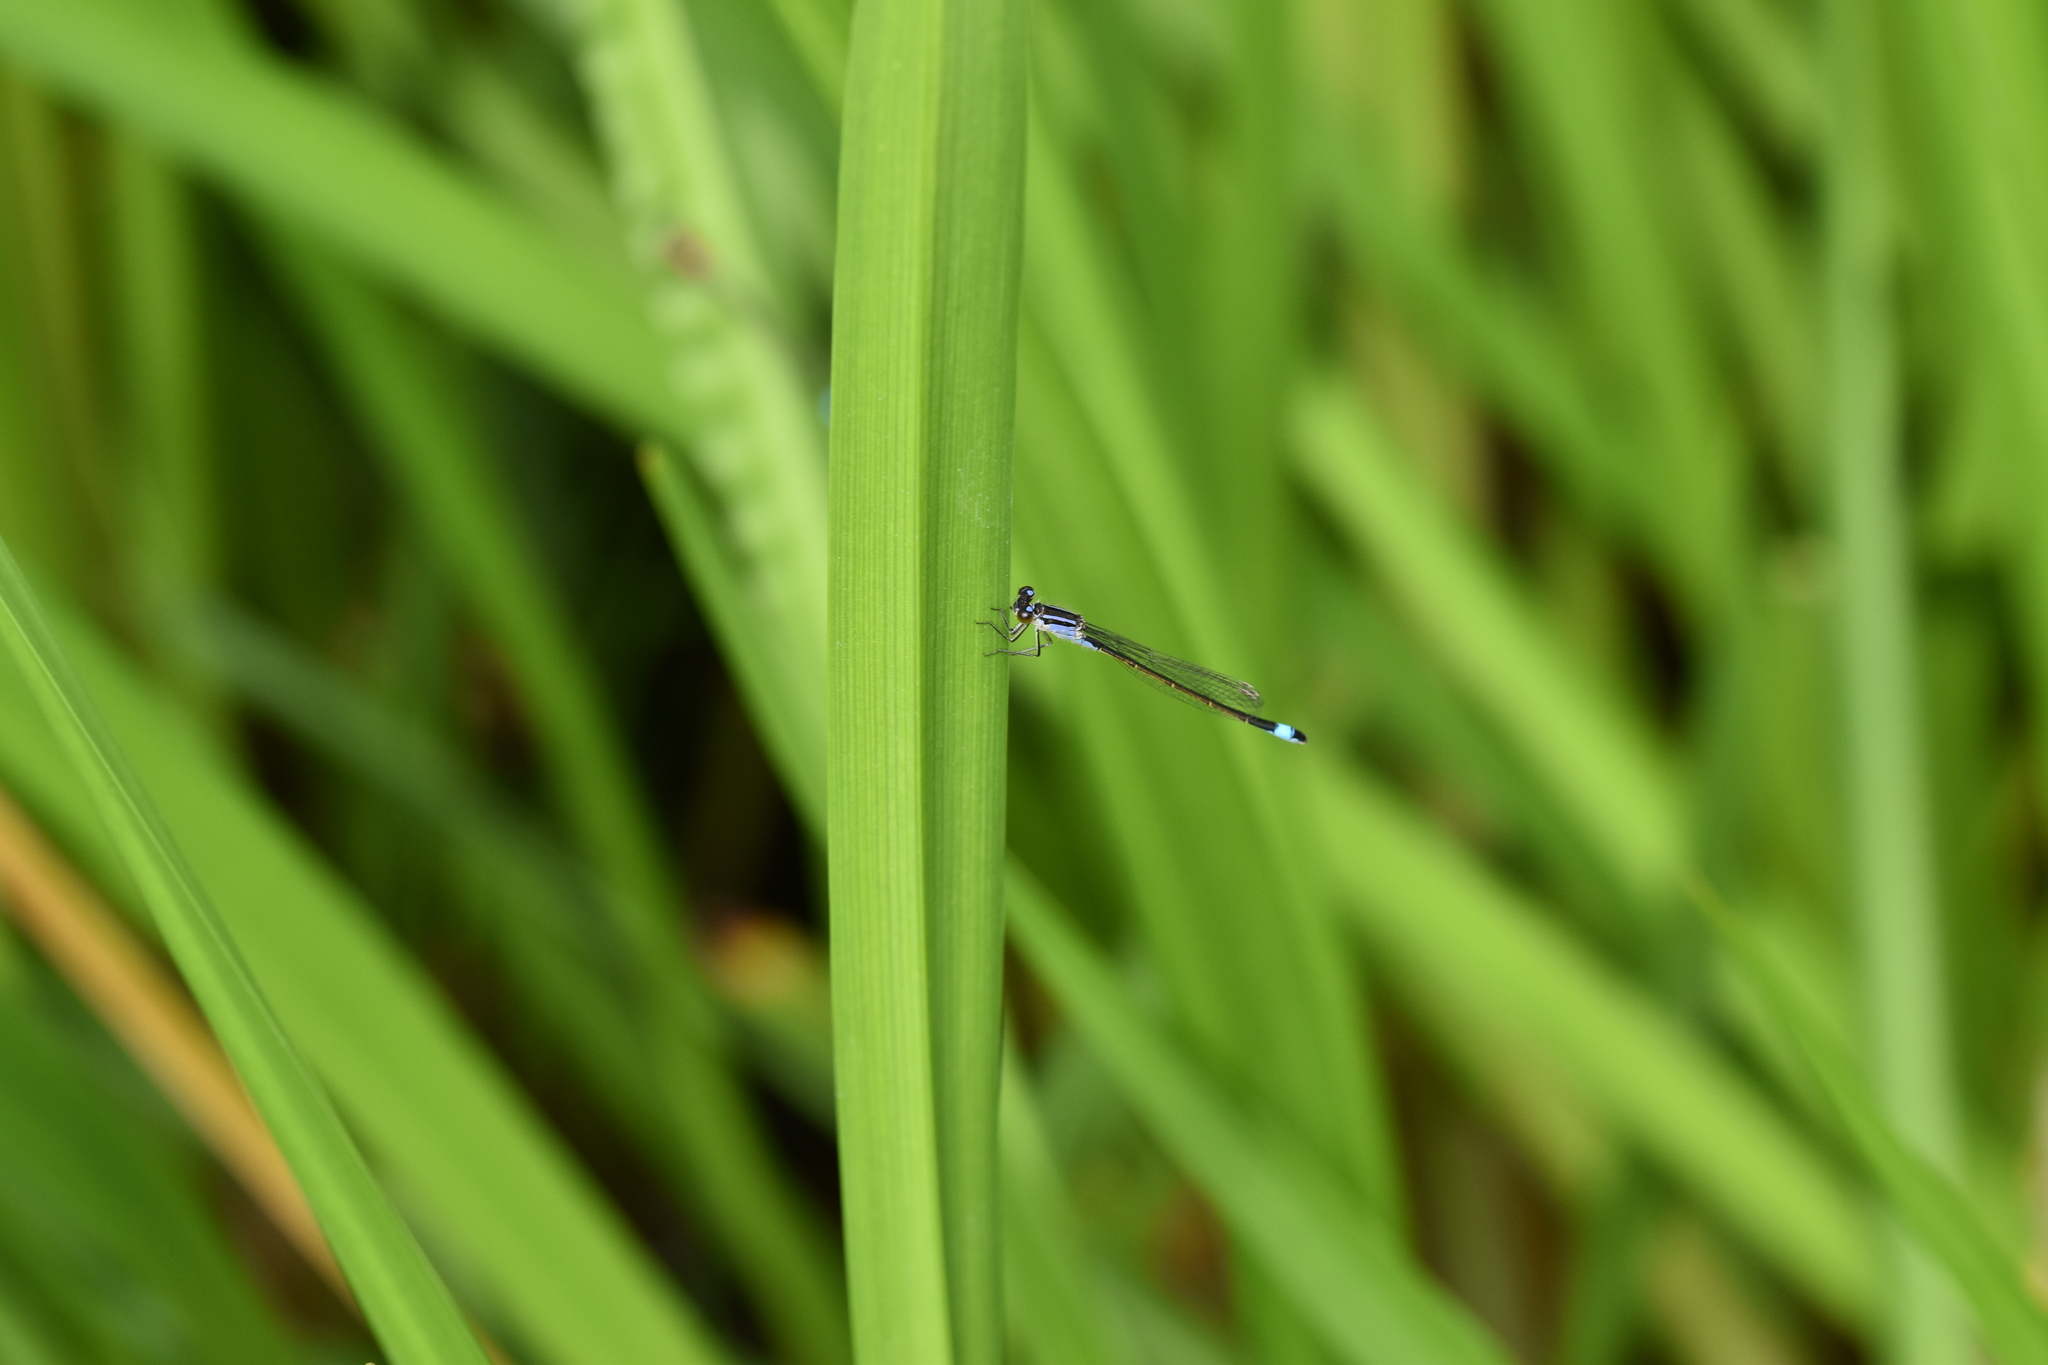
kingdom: Animalia
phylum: Arthropoda
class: Insecta
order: Odonata
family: Coenagrionidae
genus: Ischnura
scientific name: Ischnura elegans
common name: Blue-tailed damselfly
